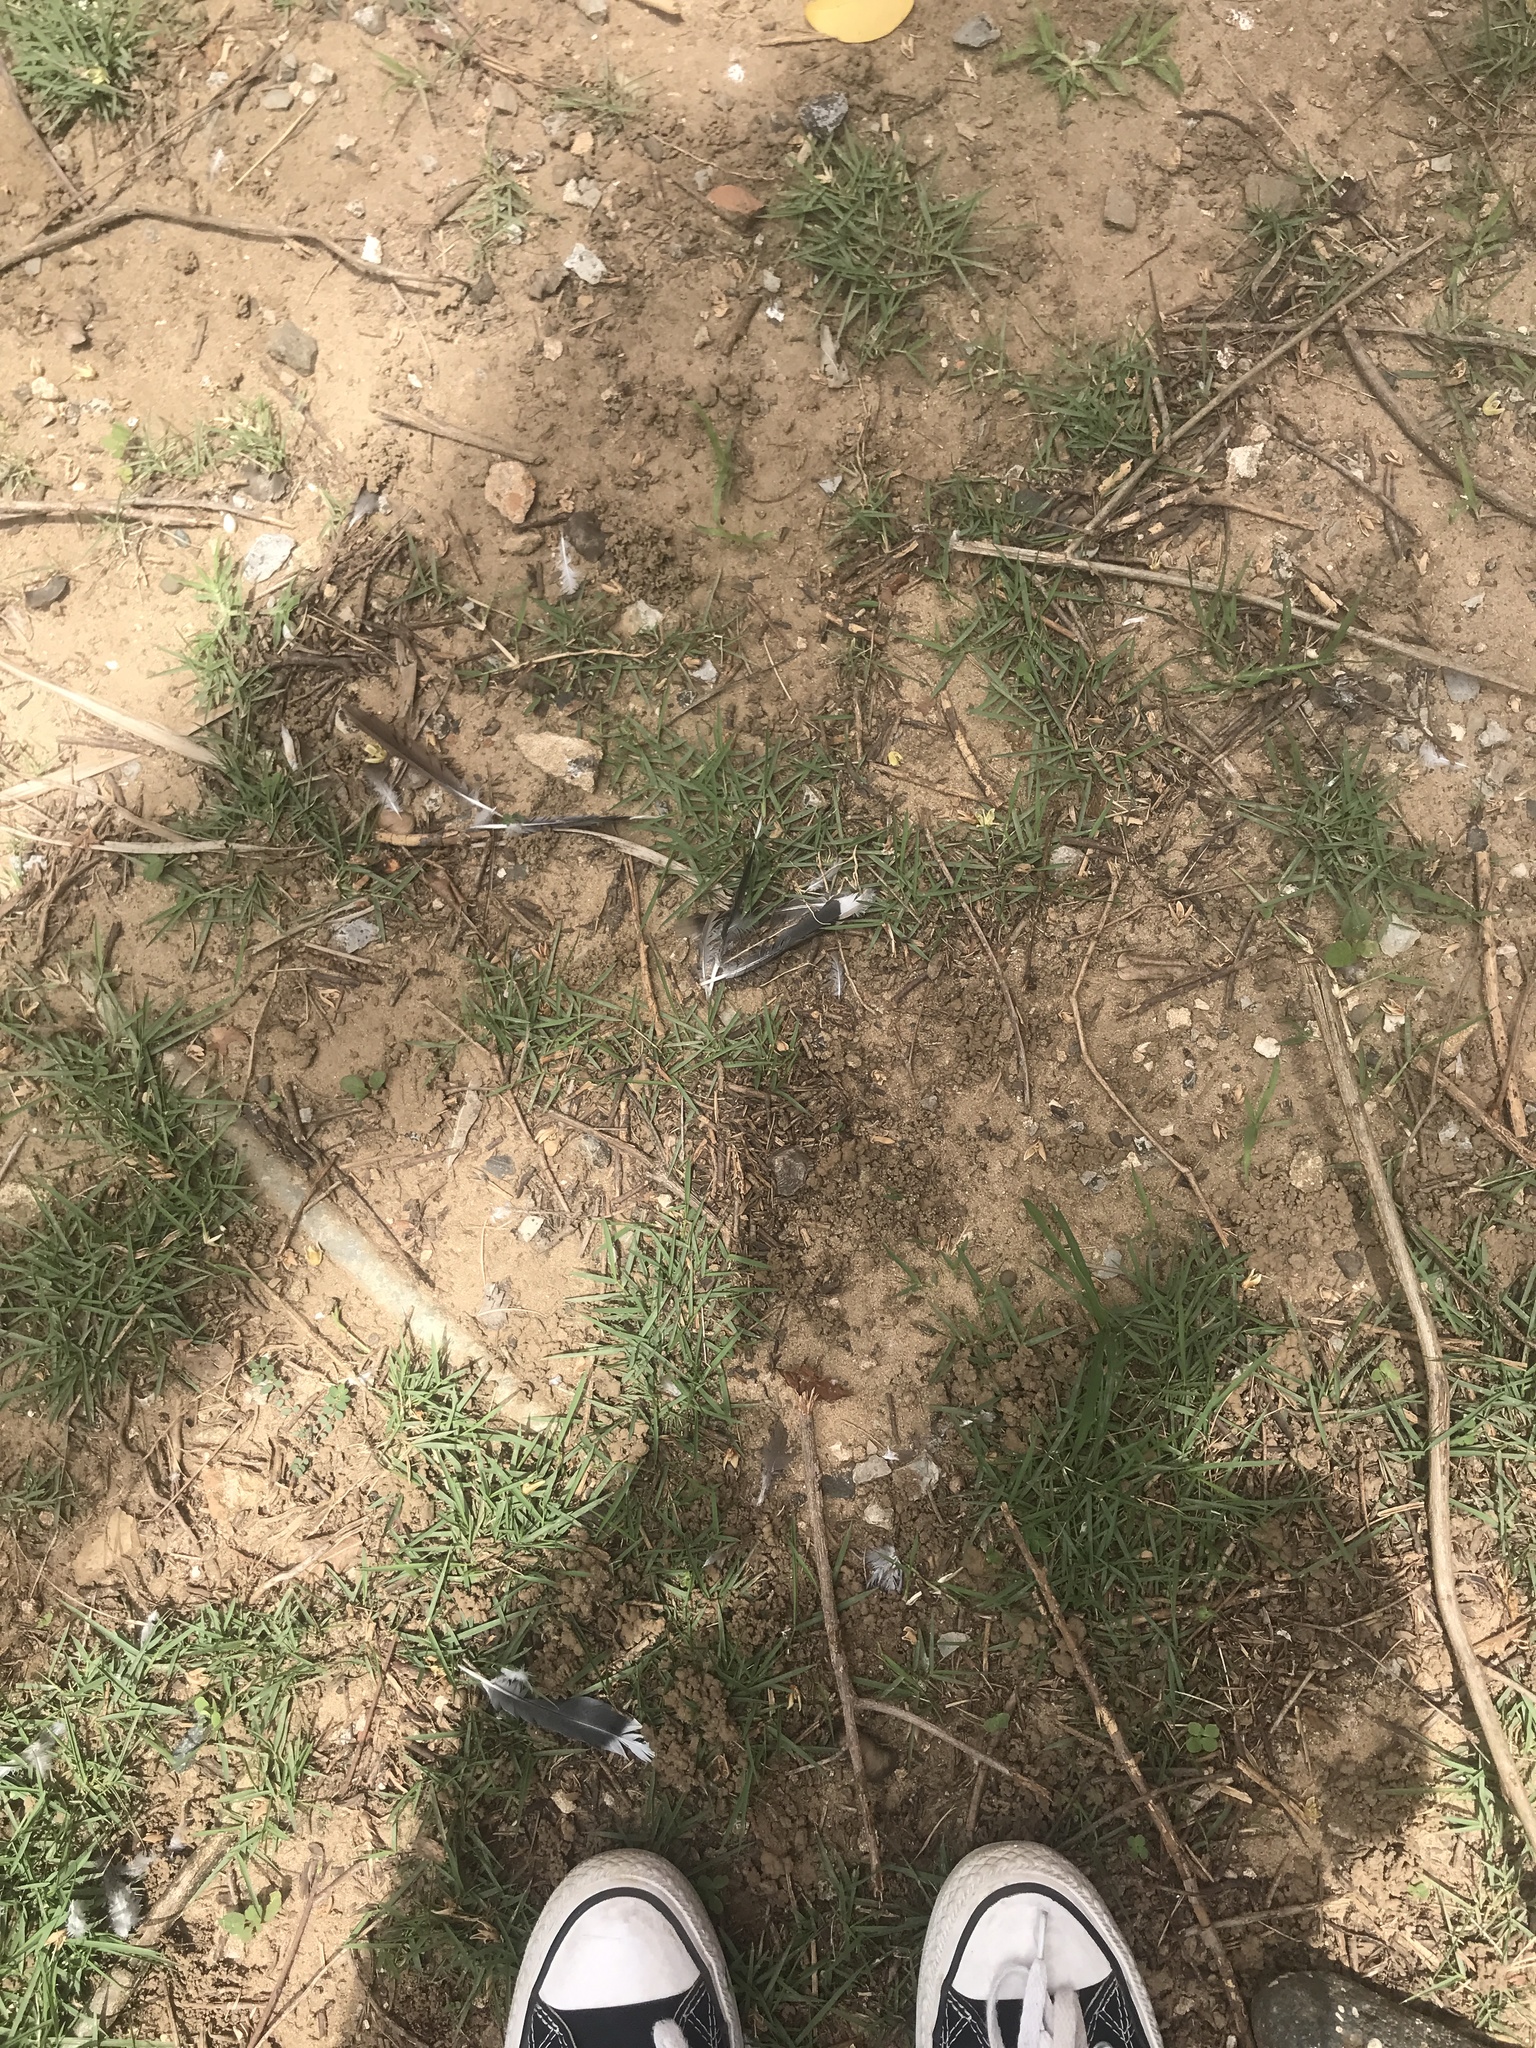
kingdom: Animalia
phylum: Chordata
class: Aves
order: Columbiformes
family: Columbidae
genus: Zenaida
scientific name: Zenaida asiatica
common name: White-winged dove
